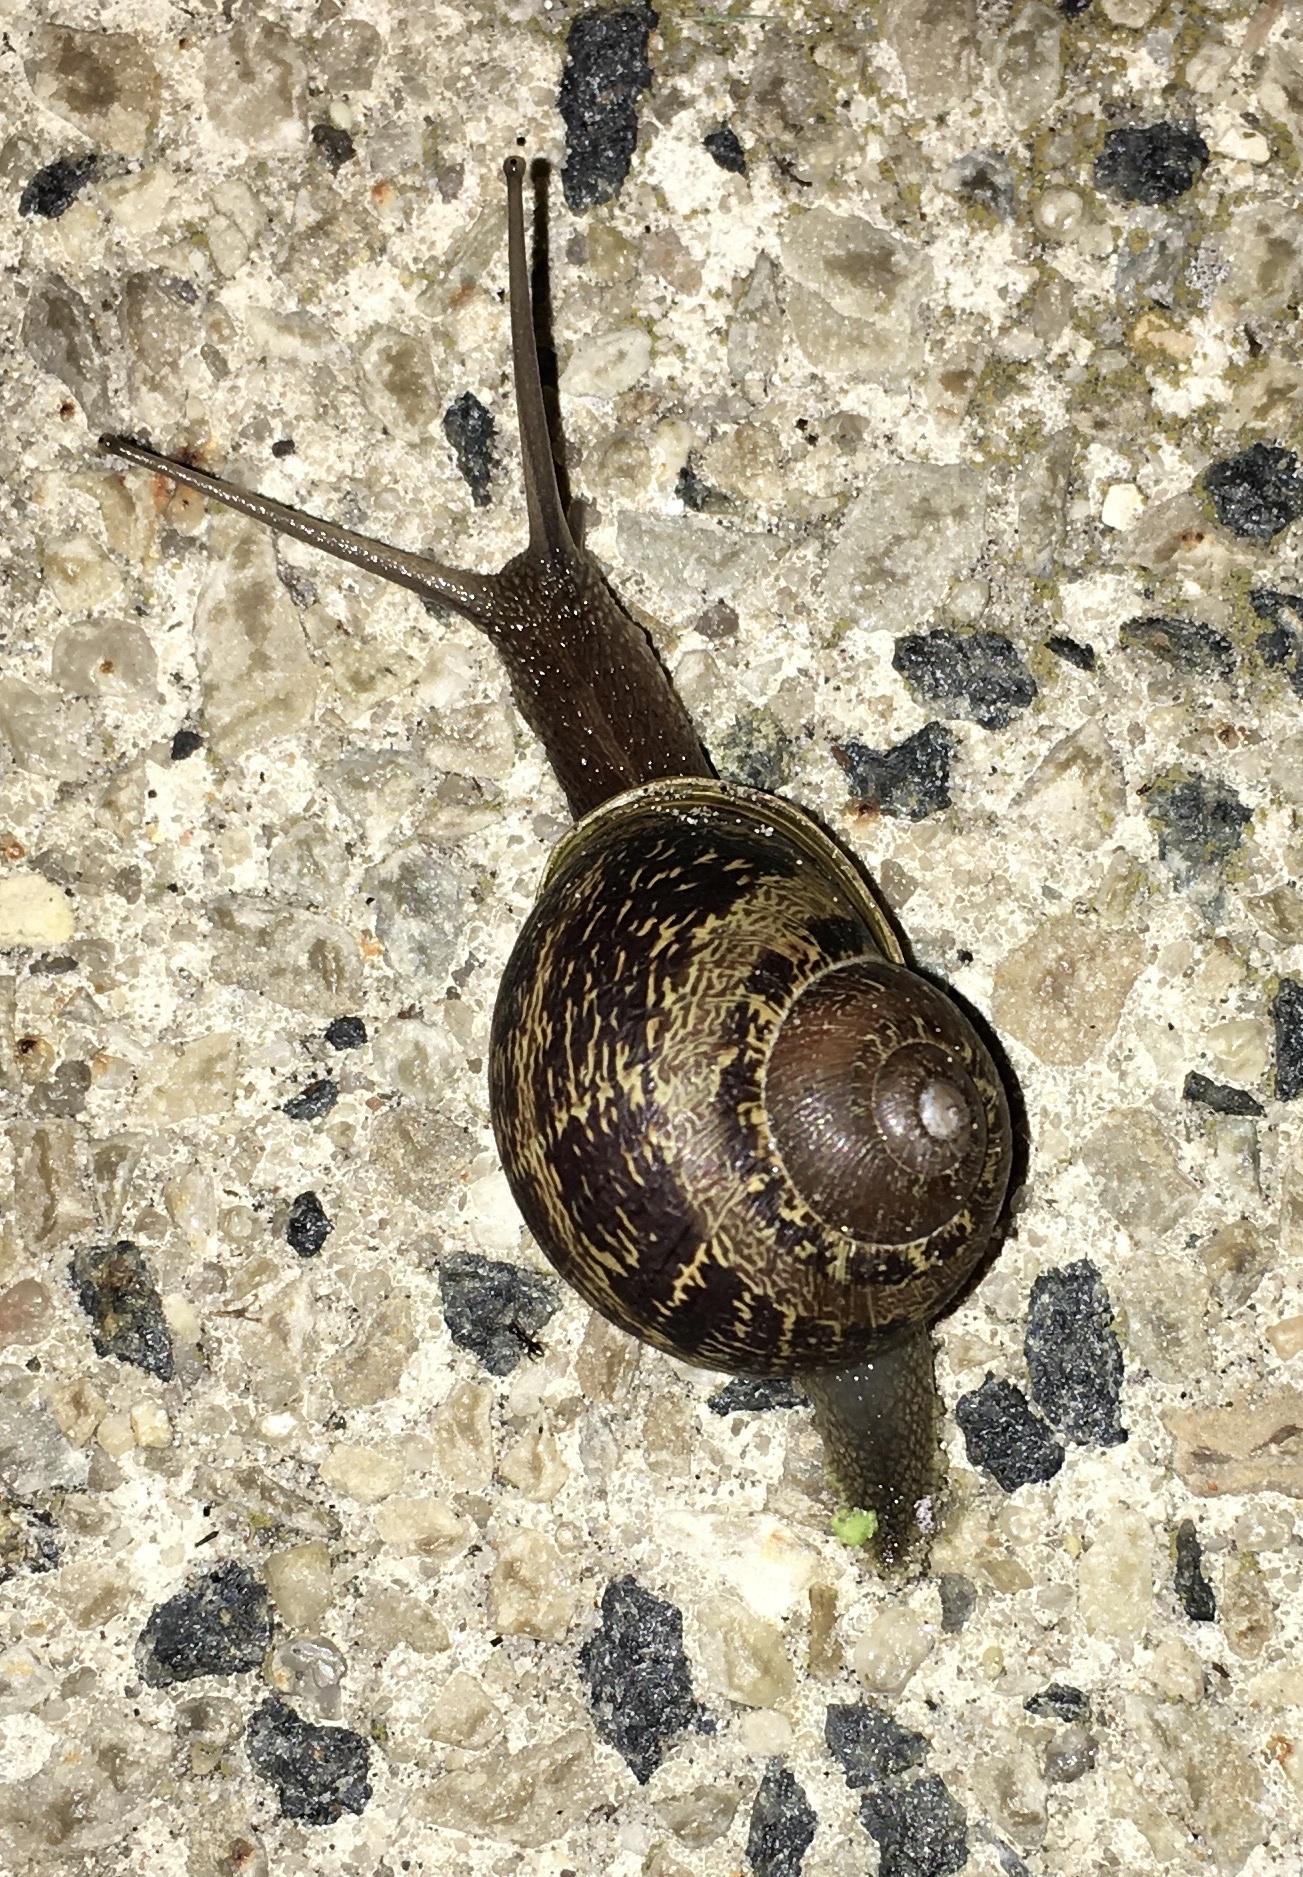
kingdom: Animalia
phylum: Mollusca
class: Gastropoda
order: Stylommatophora
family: Helicidae
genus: Cornu
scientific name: Cornu aspersum
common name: Brown garden snail
